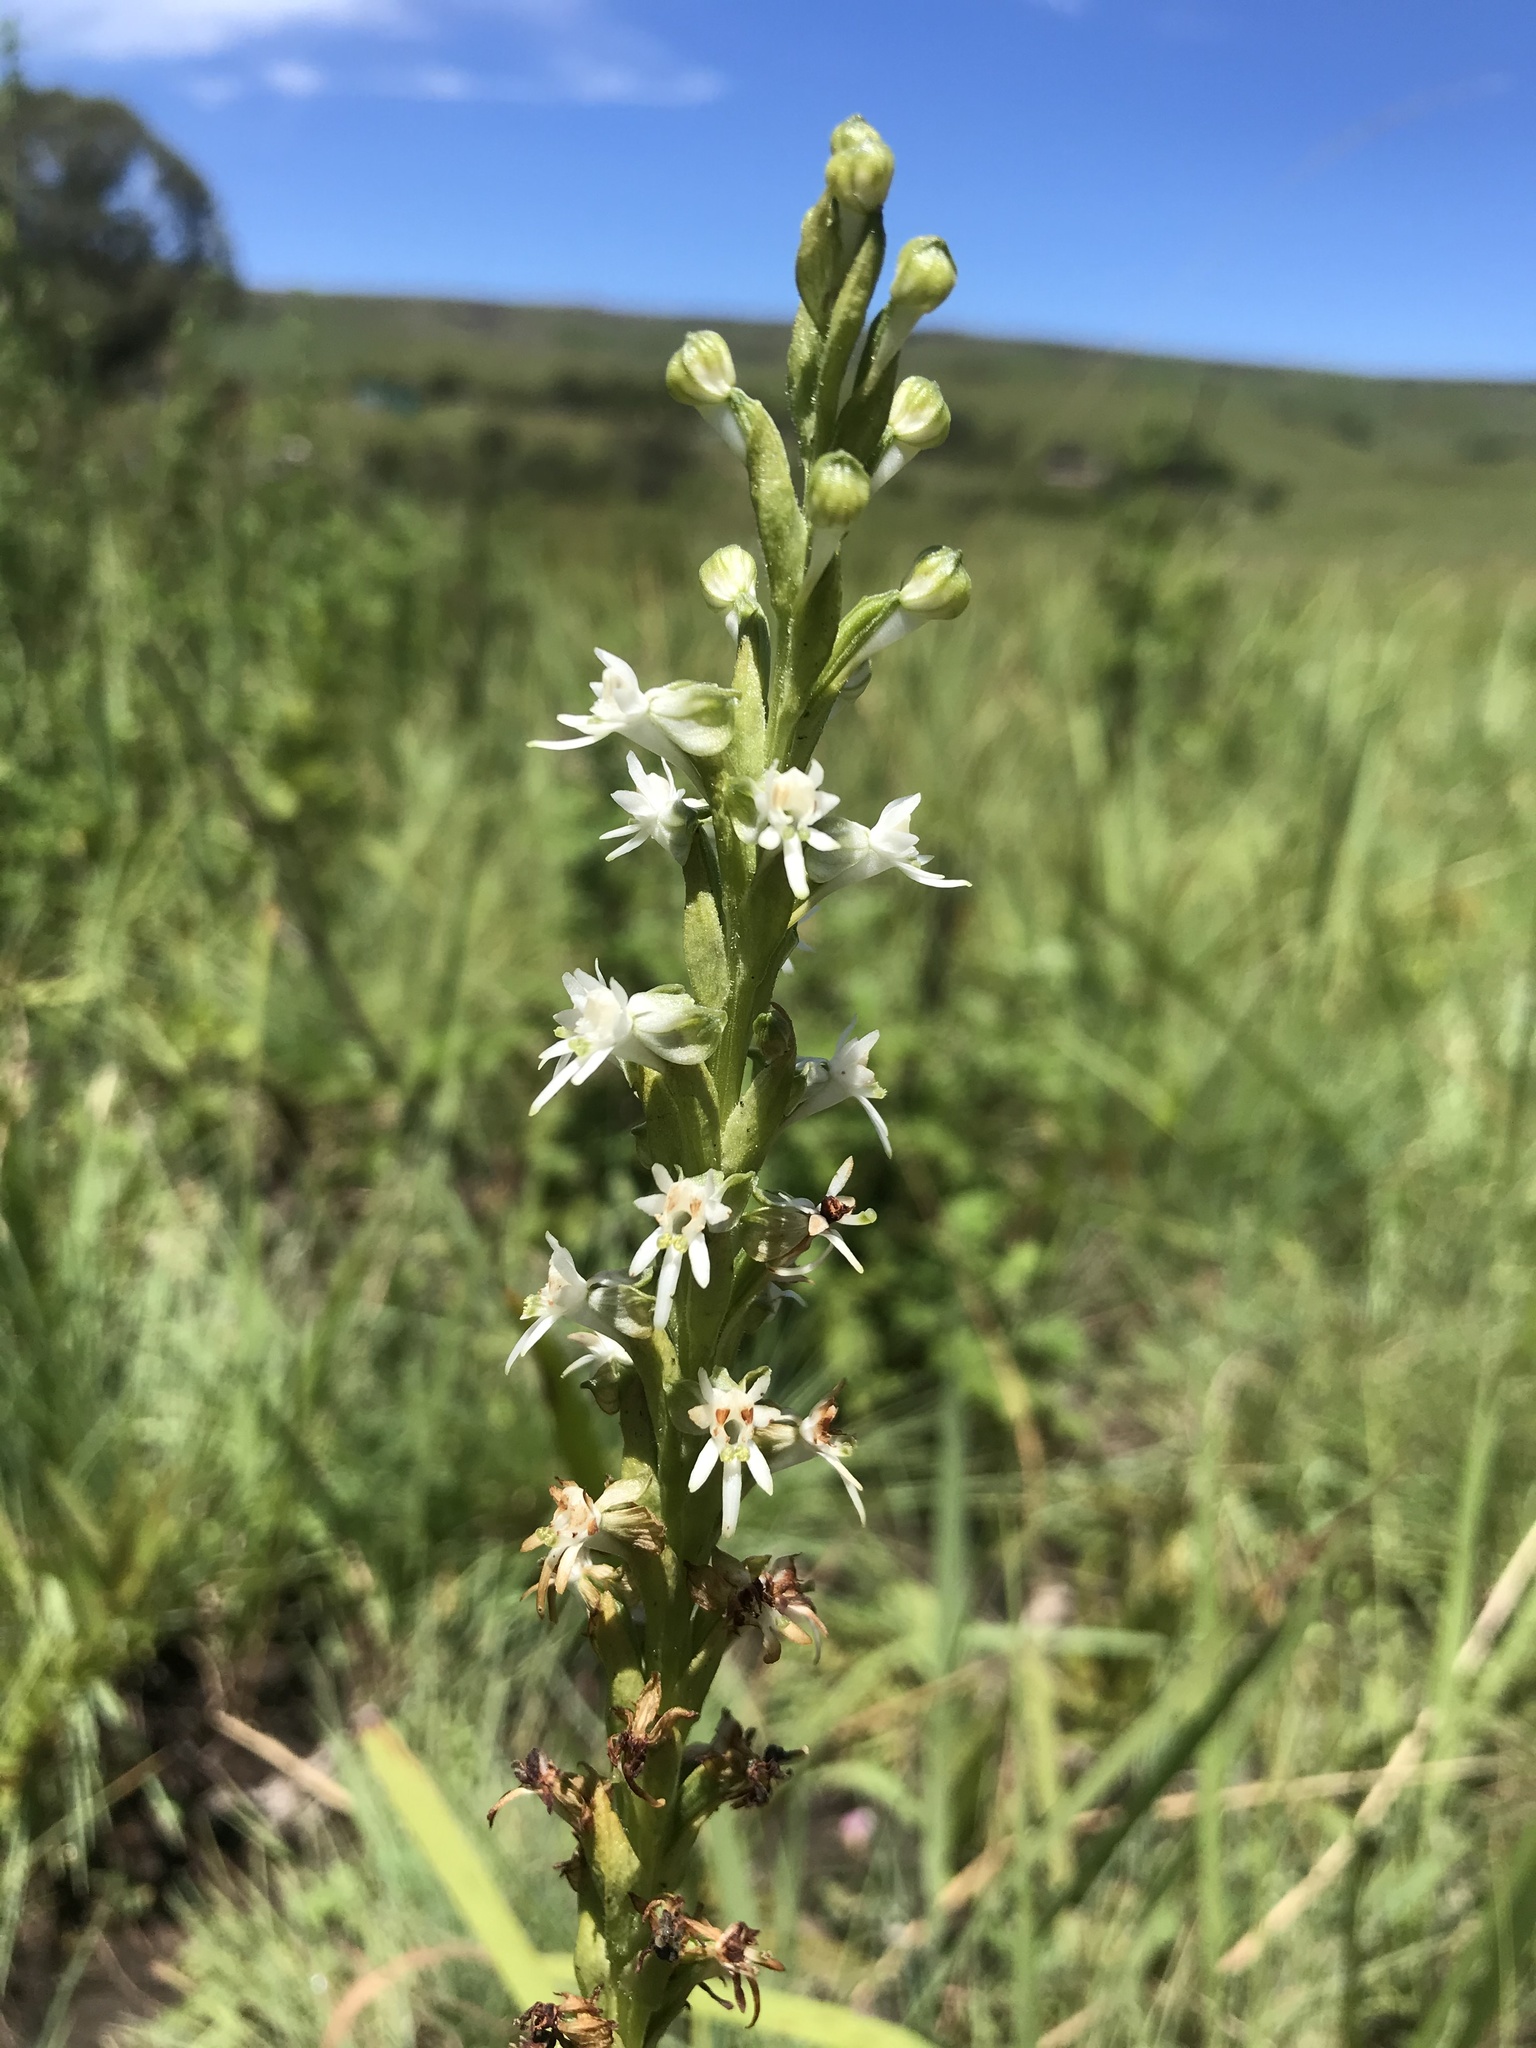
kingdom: Plantae
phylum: Tracheophyta
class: Liliopsida
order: Asparagales
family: Orchidaceae
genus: Habenaria
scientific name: Habenaria dives
